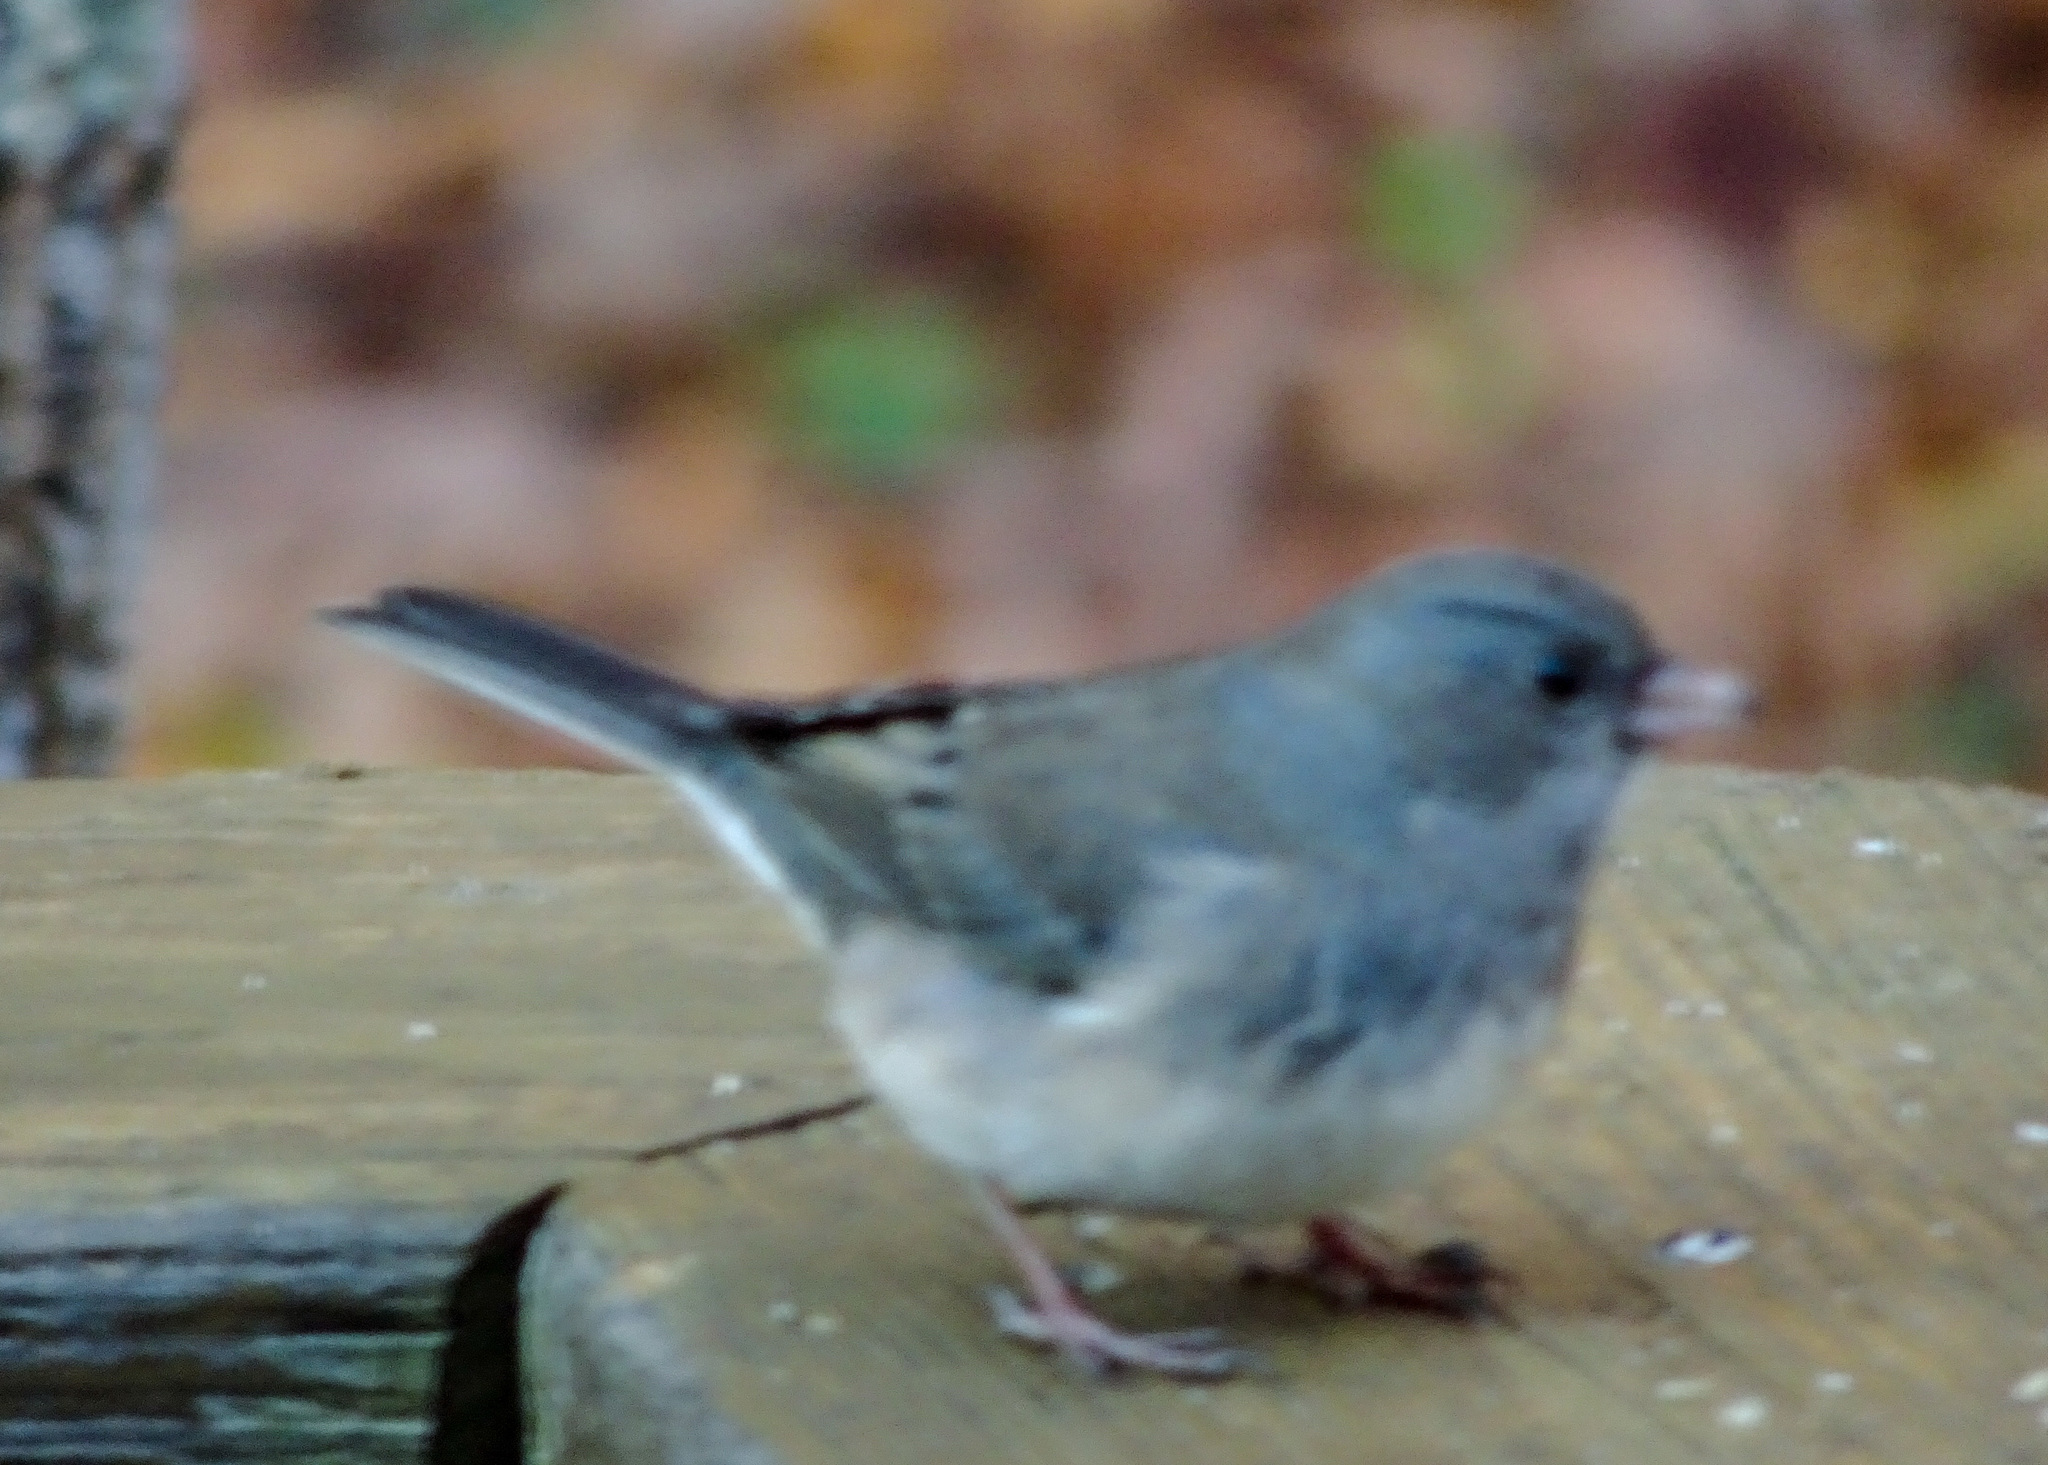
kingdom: Animalia
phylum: Chordata
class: Aves
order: Passeriformes
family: Passerellidae
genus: Junco
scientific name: Junco hyemalis
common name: Dark-eyed junco
